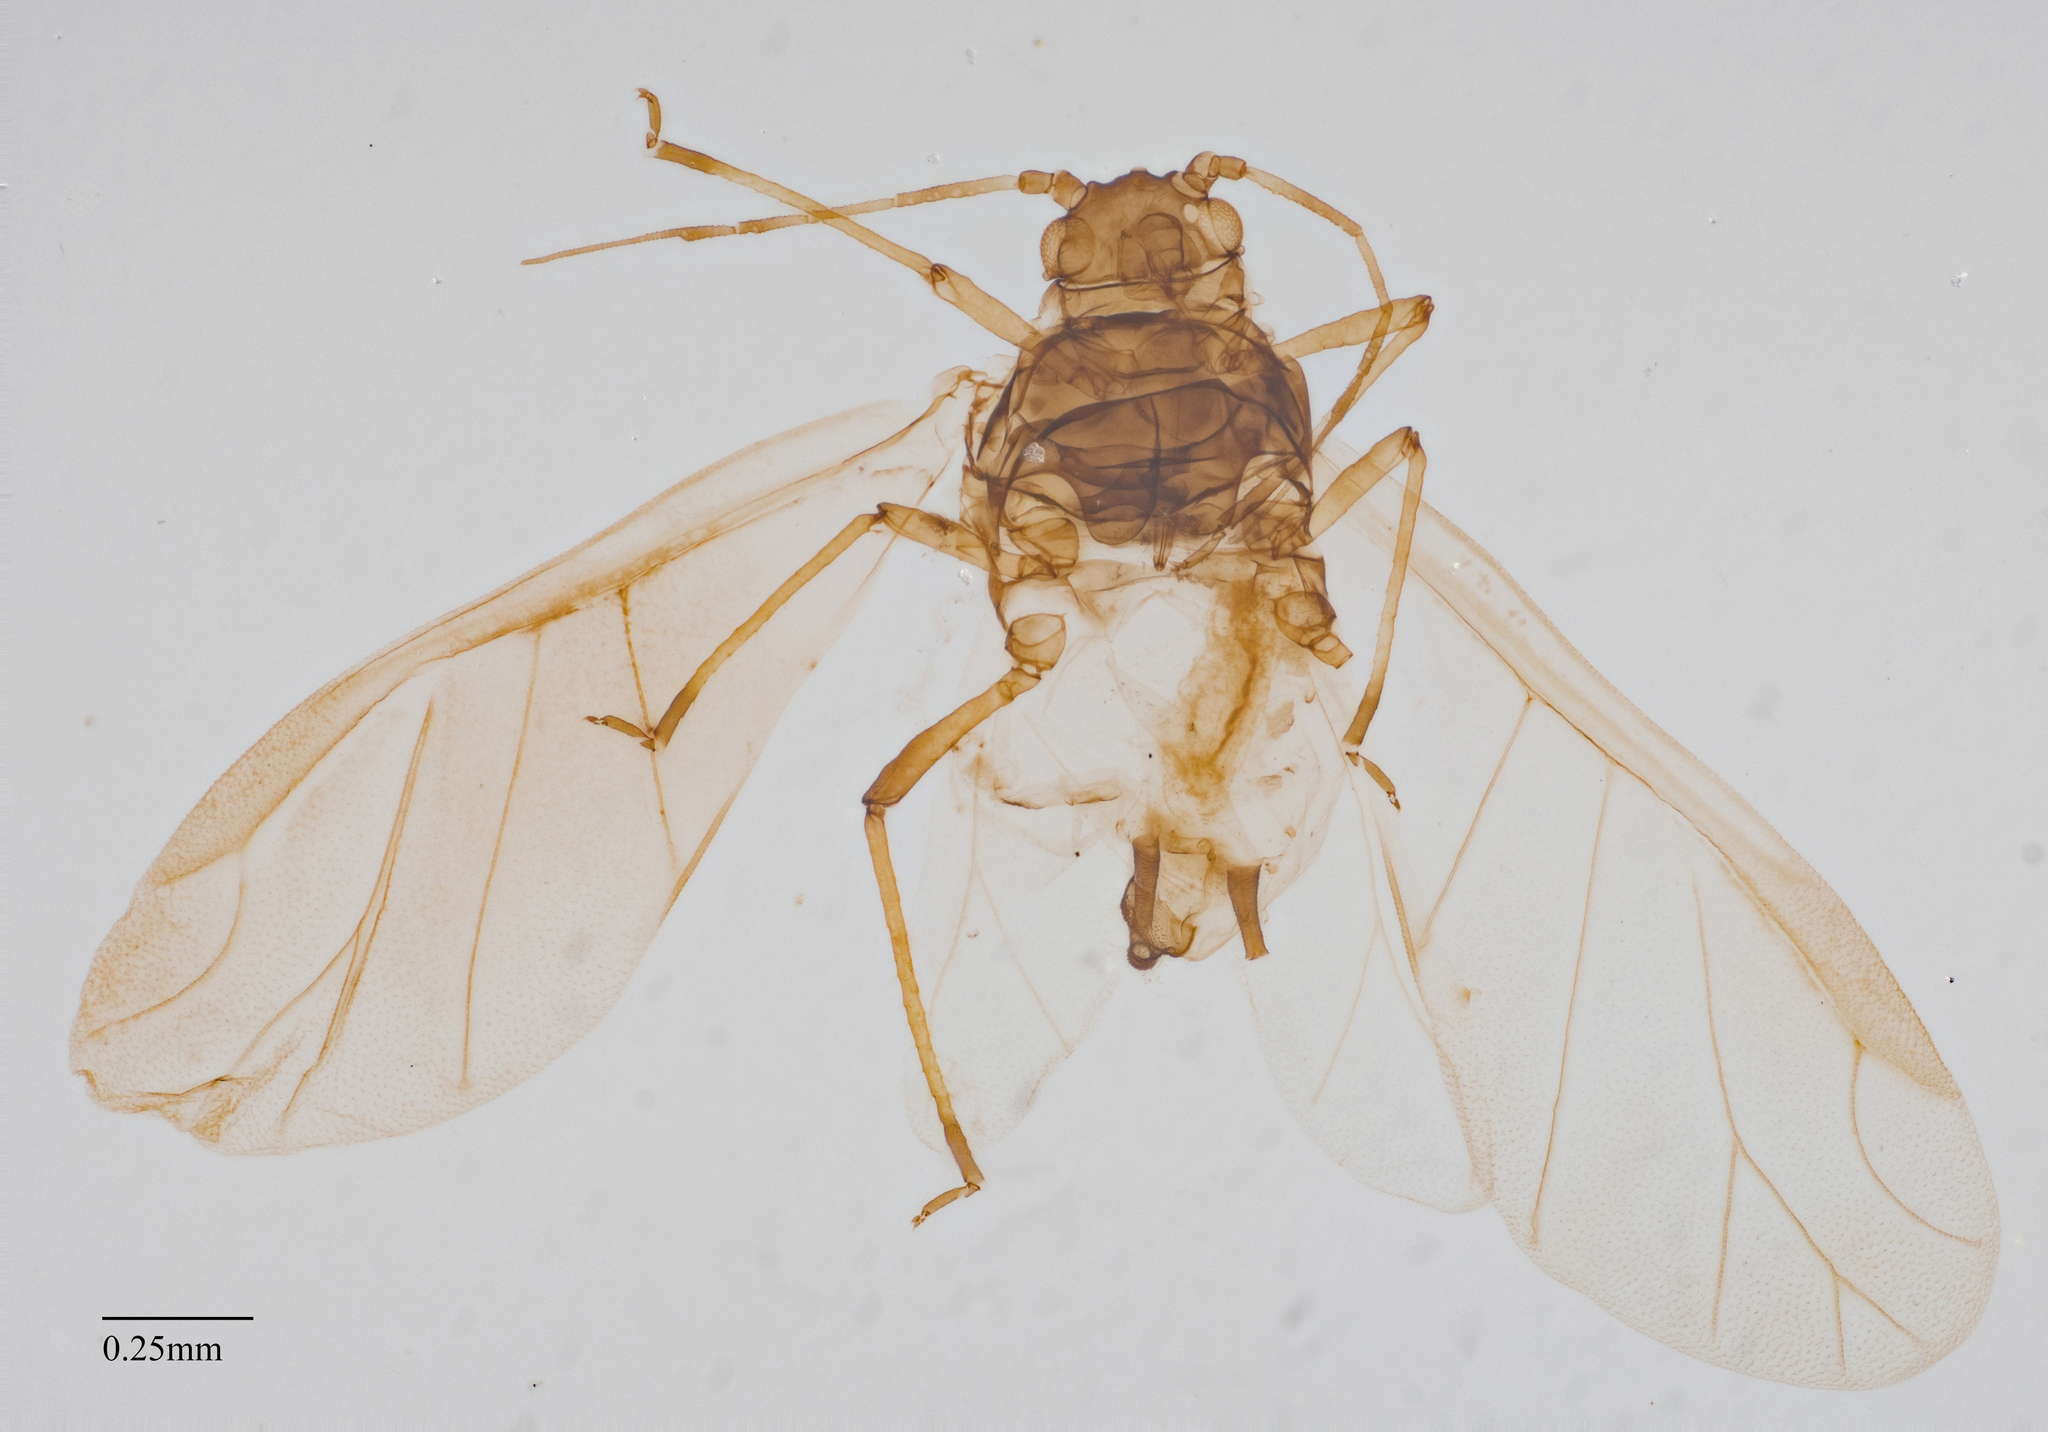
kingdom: Animalia
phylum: Arthropoda
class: Insecta
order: Hemiptera
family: Aphididae
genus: Aphis
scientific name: Aphis spiraecola
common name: Spirea aphid
